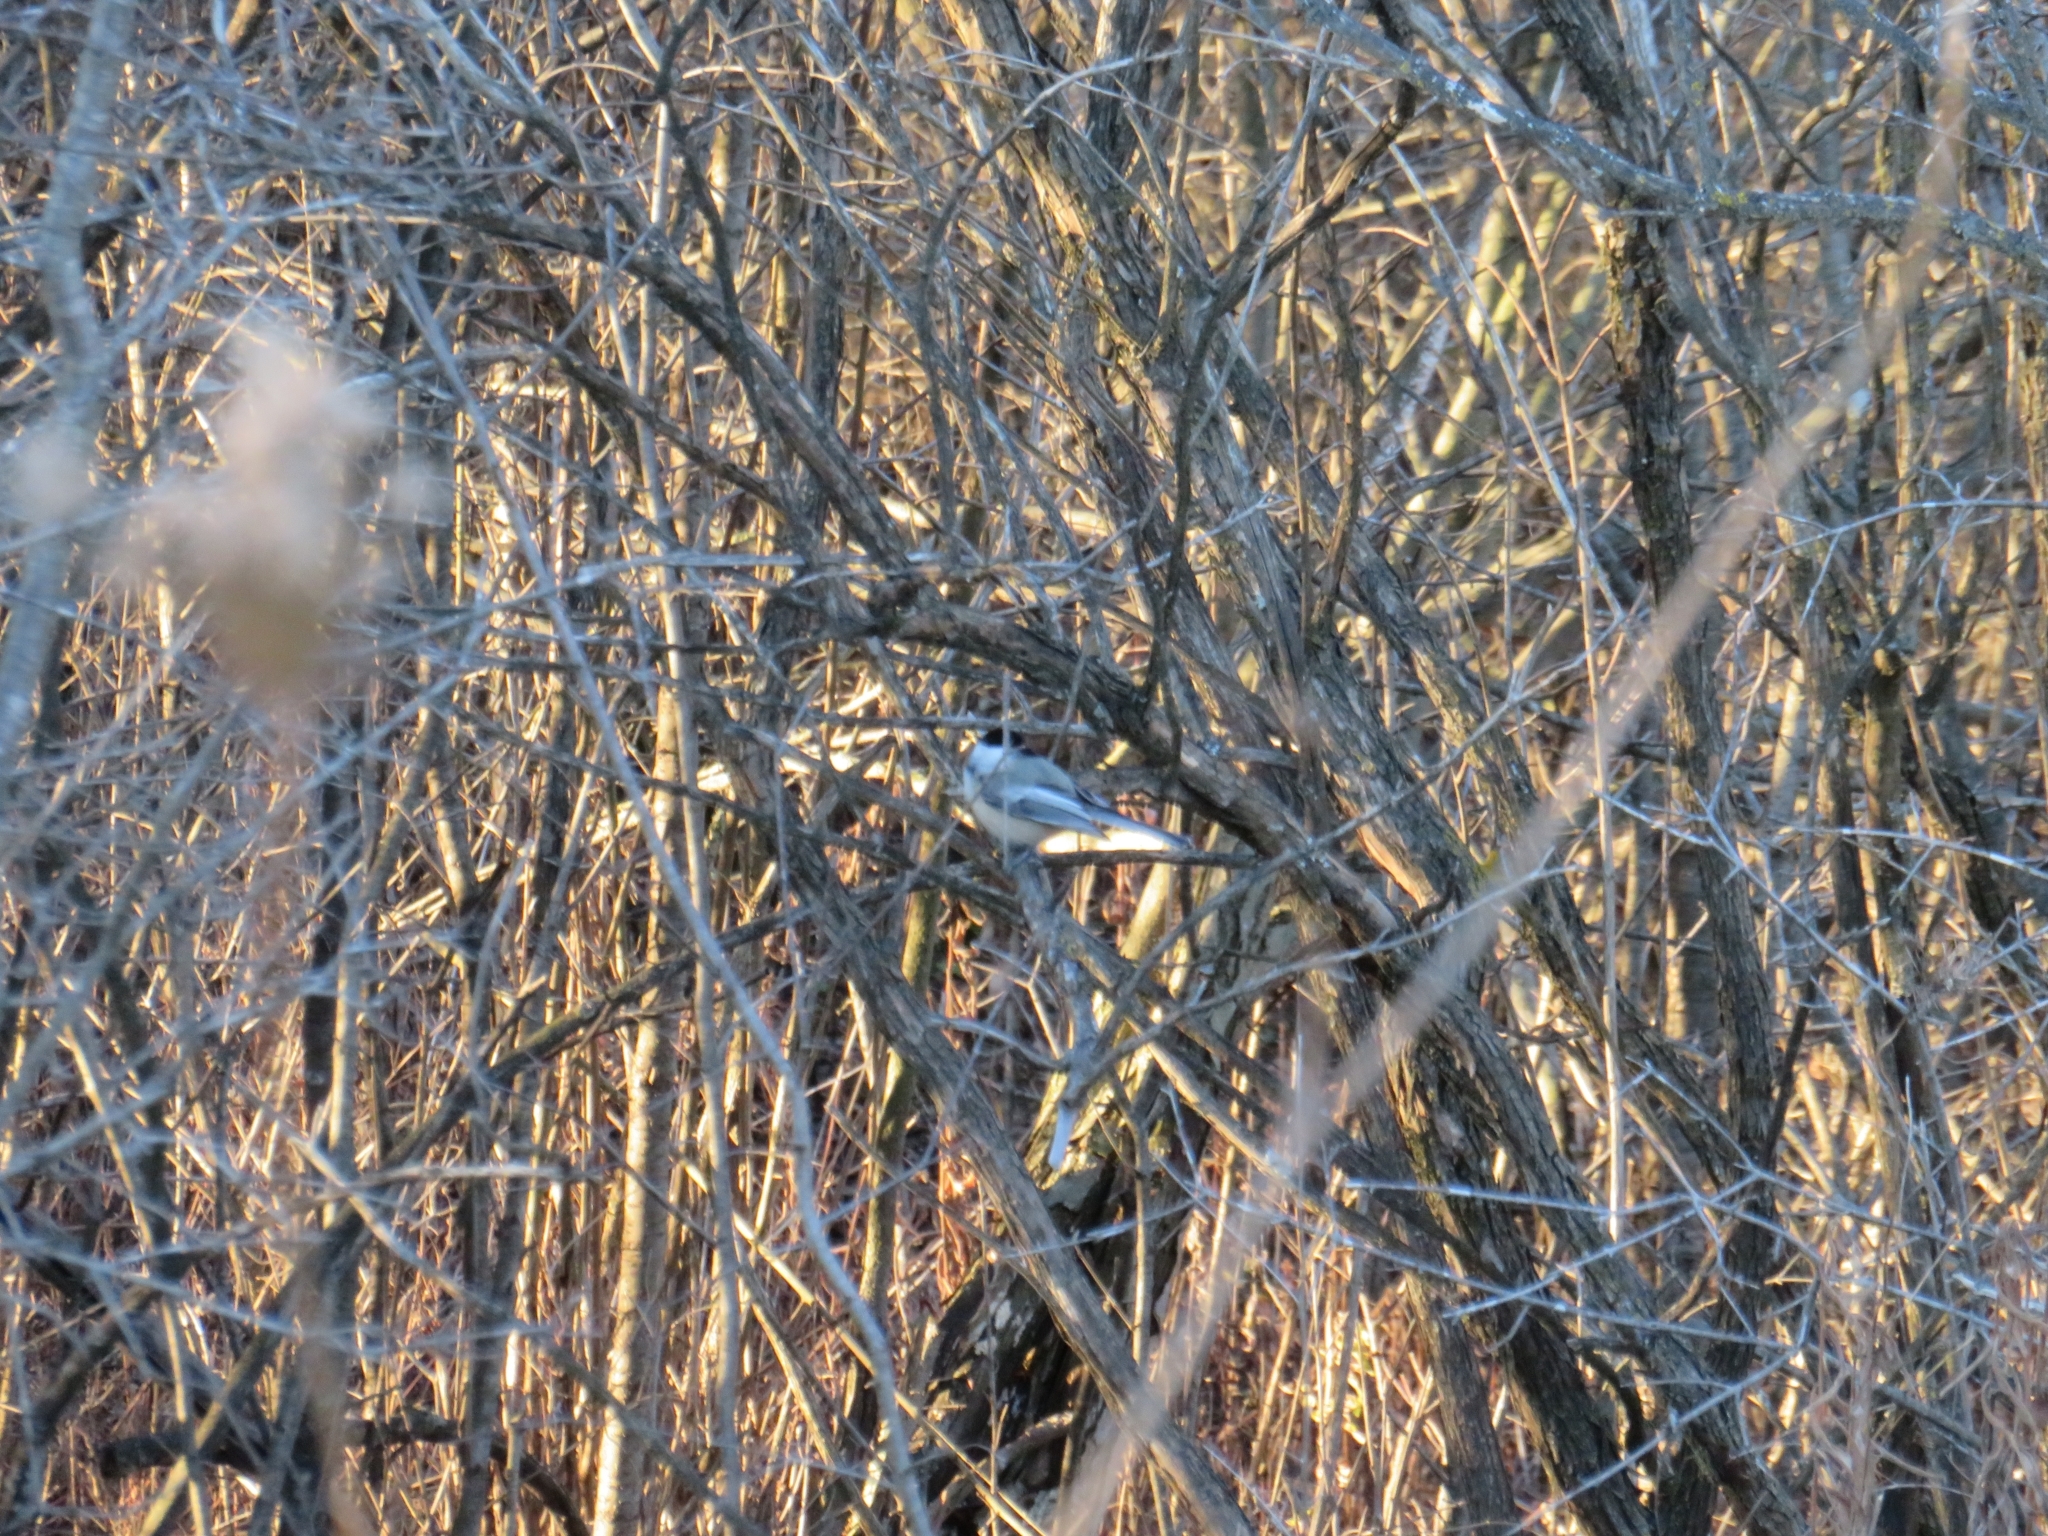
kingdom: Animalia
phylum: Chordata
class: Aves
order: Passeriformes
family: Paridae
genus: Poecile
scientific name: Poecile atricapillus
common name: Black-capped chickadee
